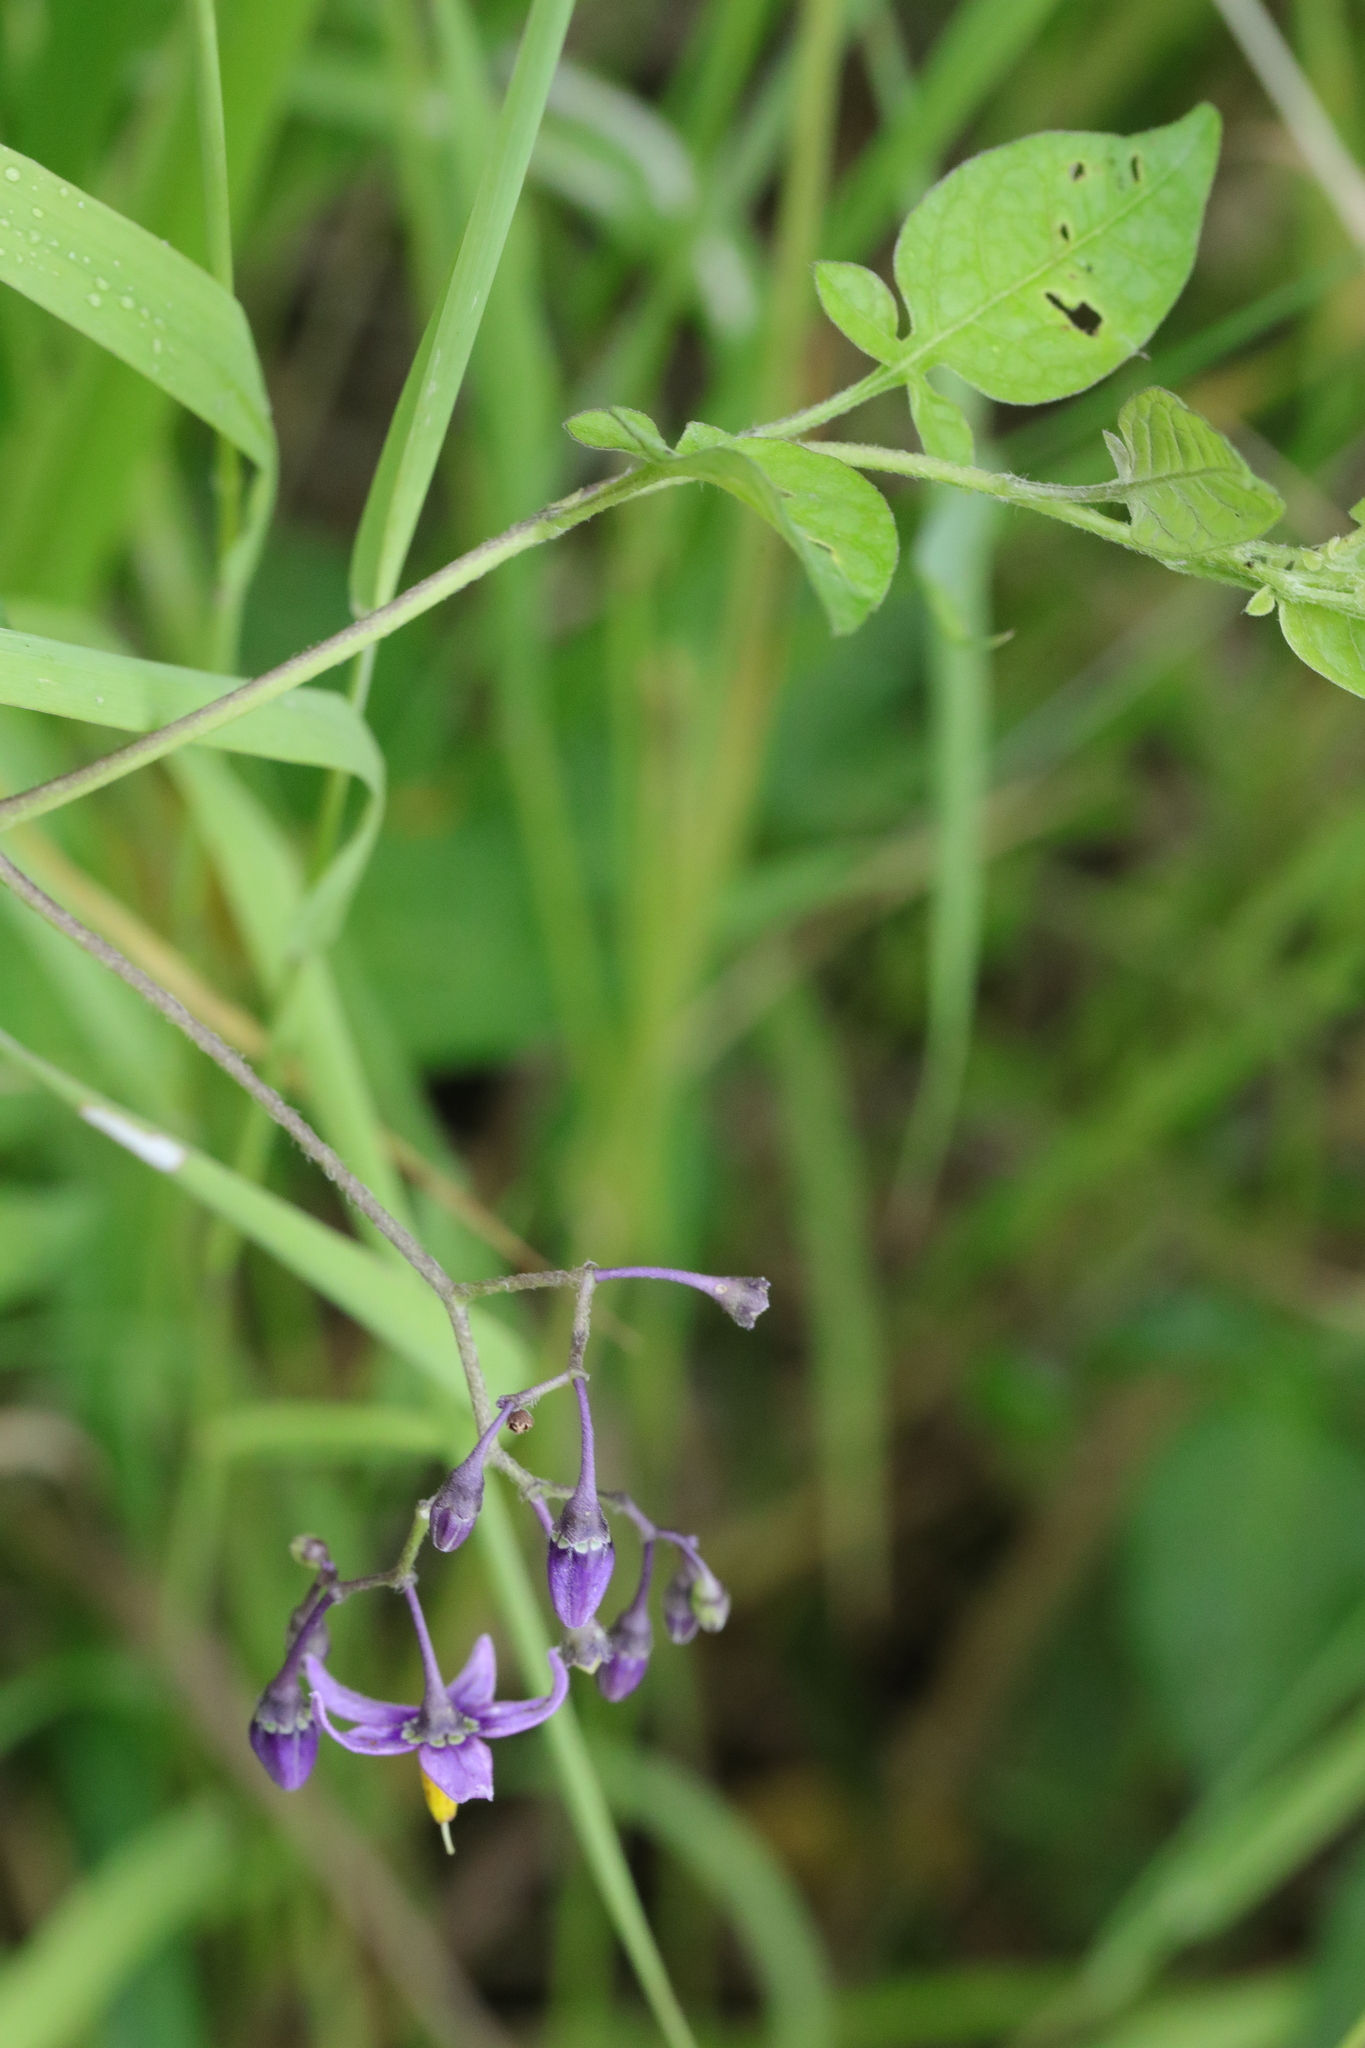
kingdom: Plantae
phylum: Tracheophyta
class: Magnoliopsida
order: Solanales
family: Solanaceae
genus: Solanum
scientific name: Solanum dulcamara
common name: Climbing nightshade
